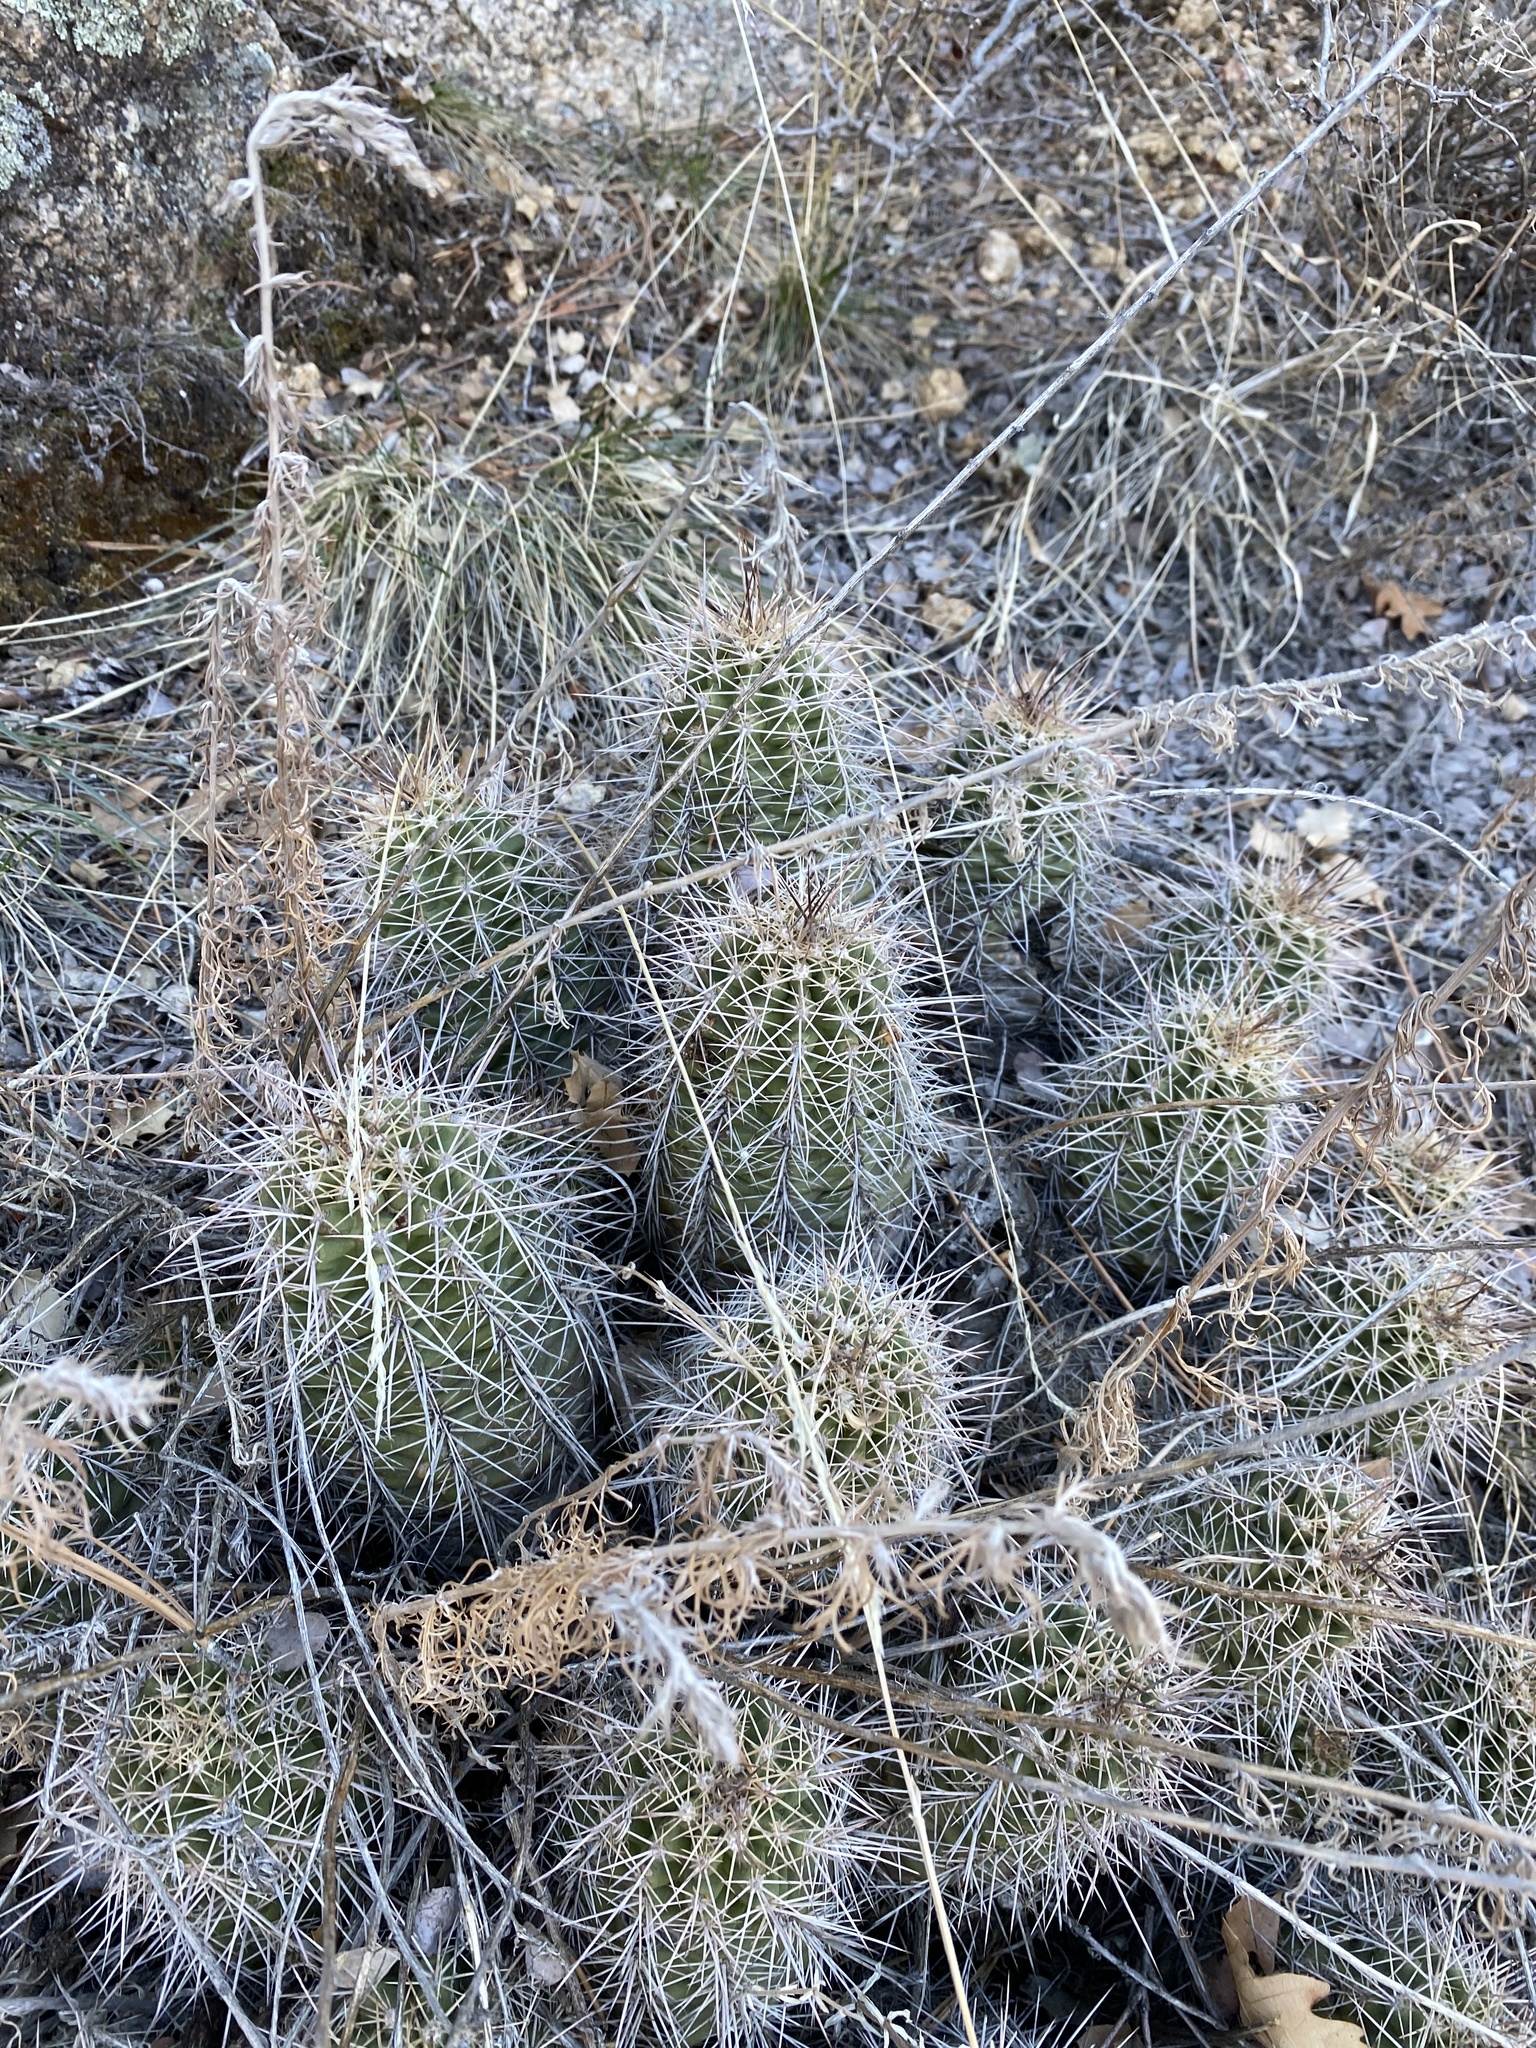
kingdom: Plantae
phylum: Tracheophyta
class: Magnoliopsida
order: Caryophyllales
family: Cactaceae
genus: Echinocereus
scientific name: Echinocereus bakeri
